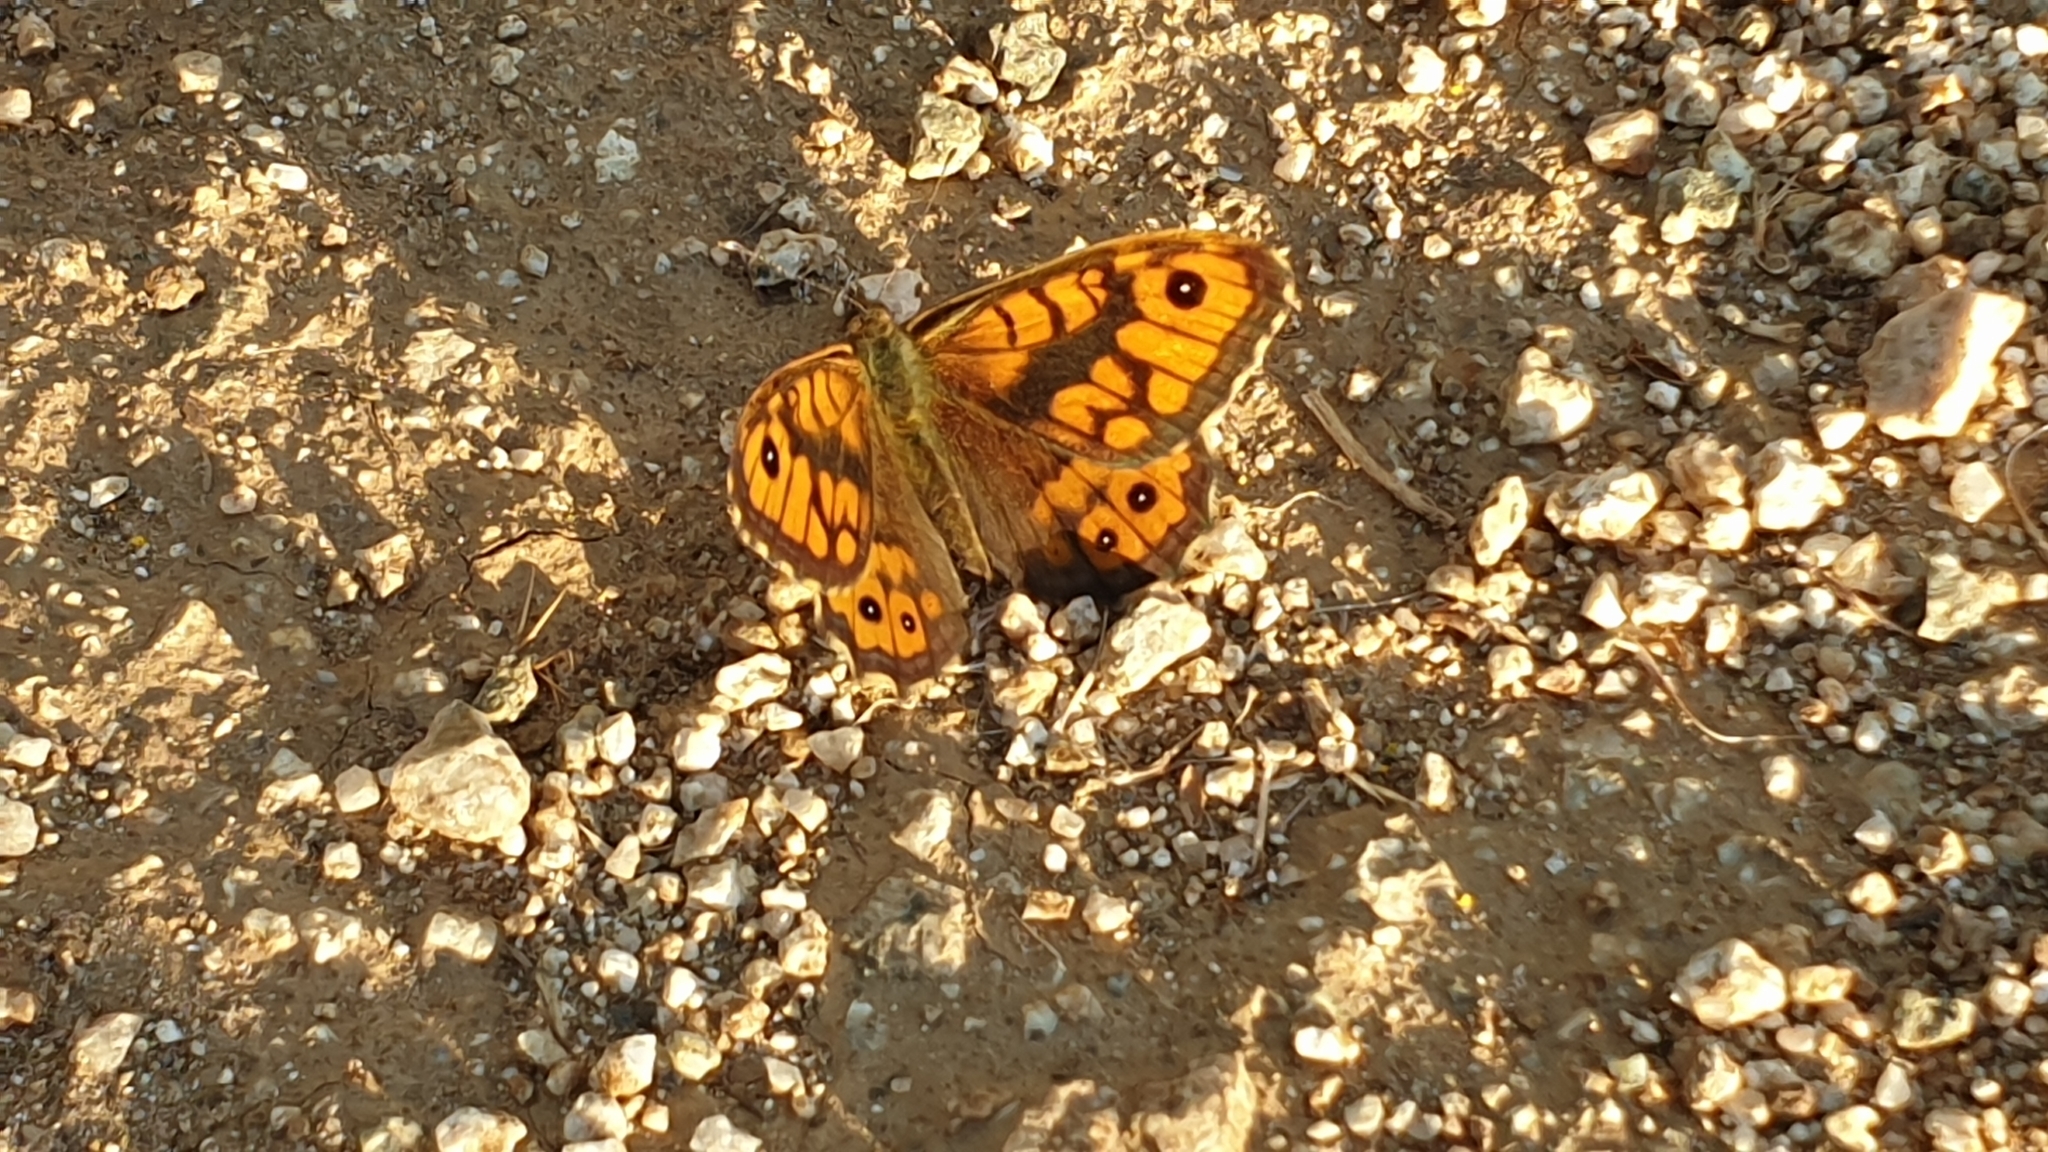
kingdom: Animalia
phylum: Arthropoda
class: Insecta
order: Lepidoptera
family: Nymphalidae
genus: Pararge
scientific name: Pararge Lasiommata megera
